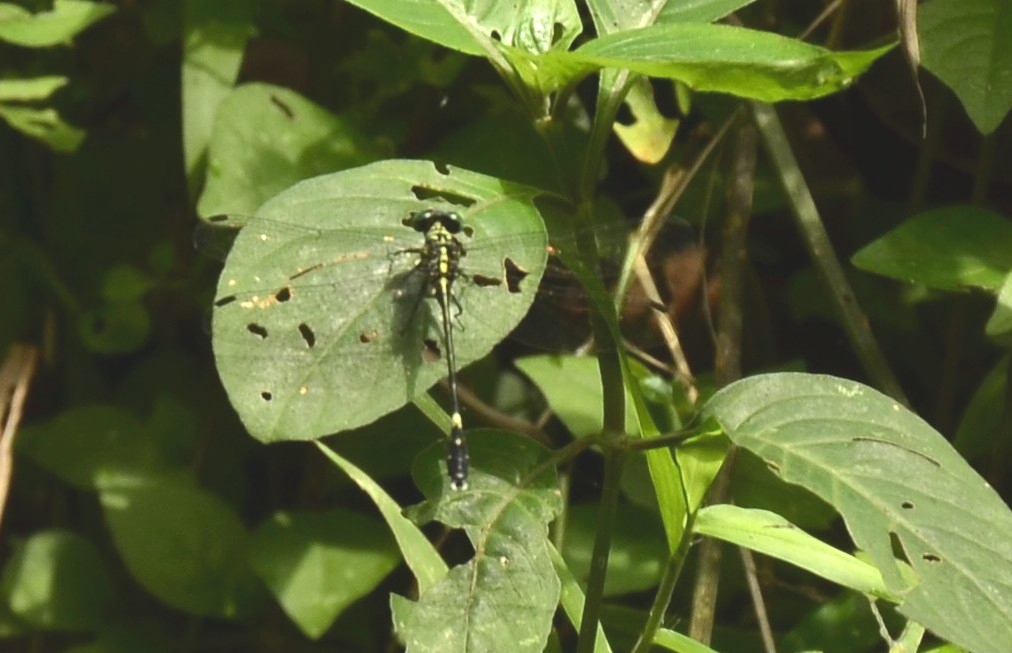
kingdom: Animalia
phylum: Arthropoda
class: Insecta
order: Odonata
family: Gomphidae
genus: Merogomphus
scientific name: Merogomphus tamaracherriensis
